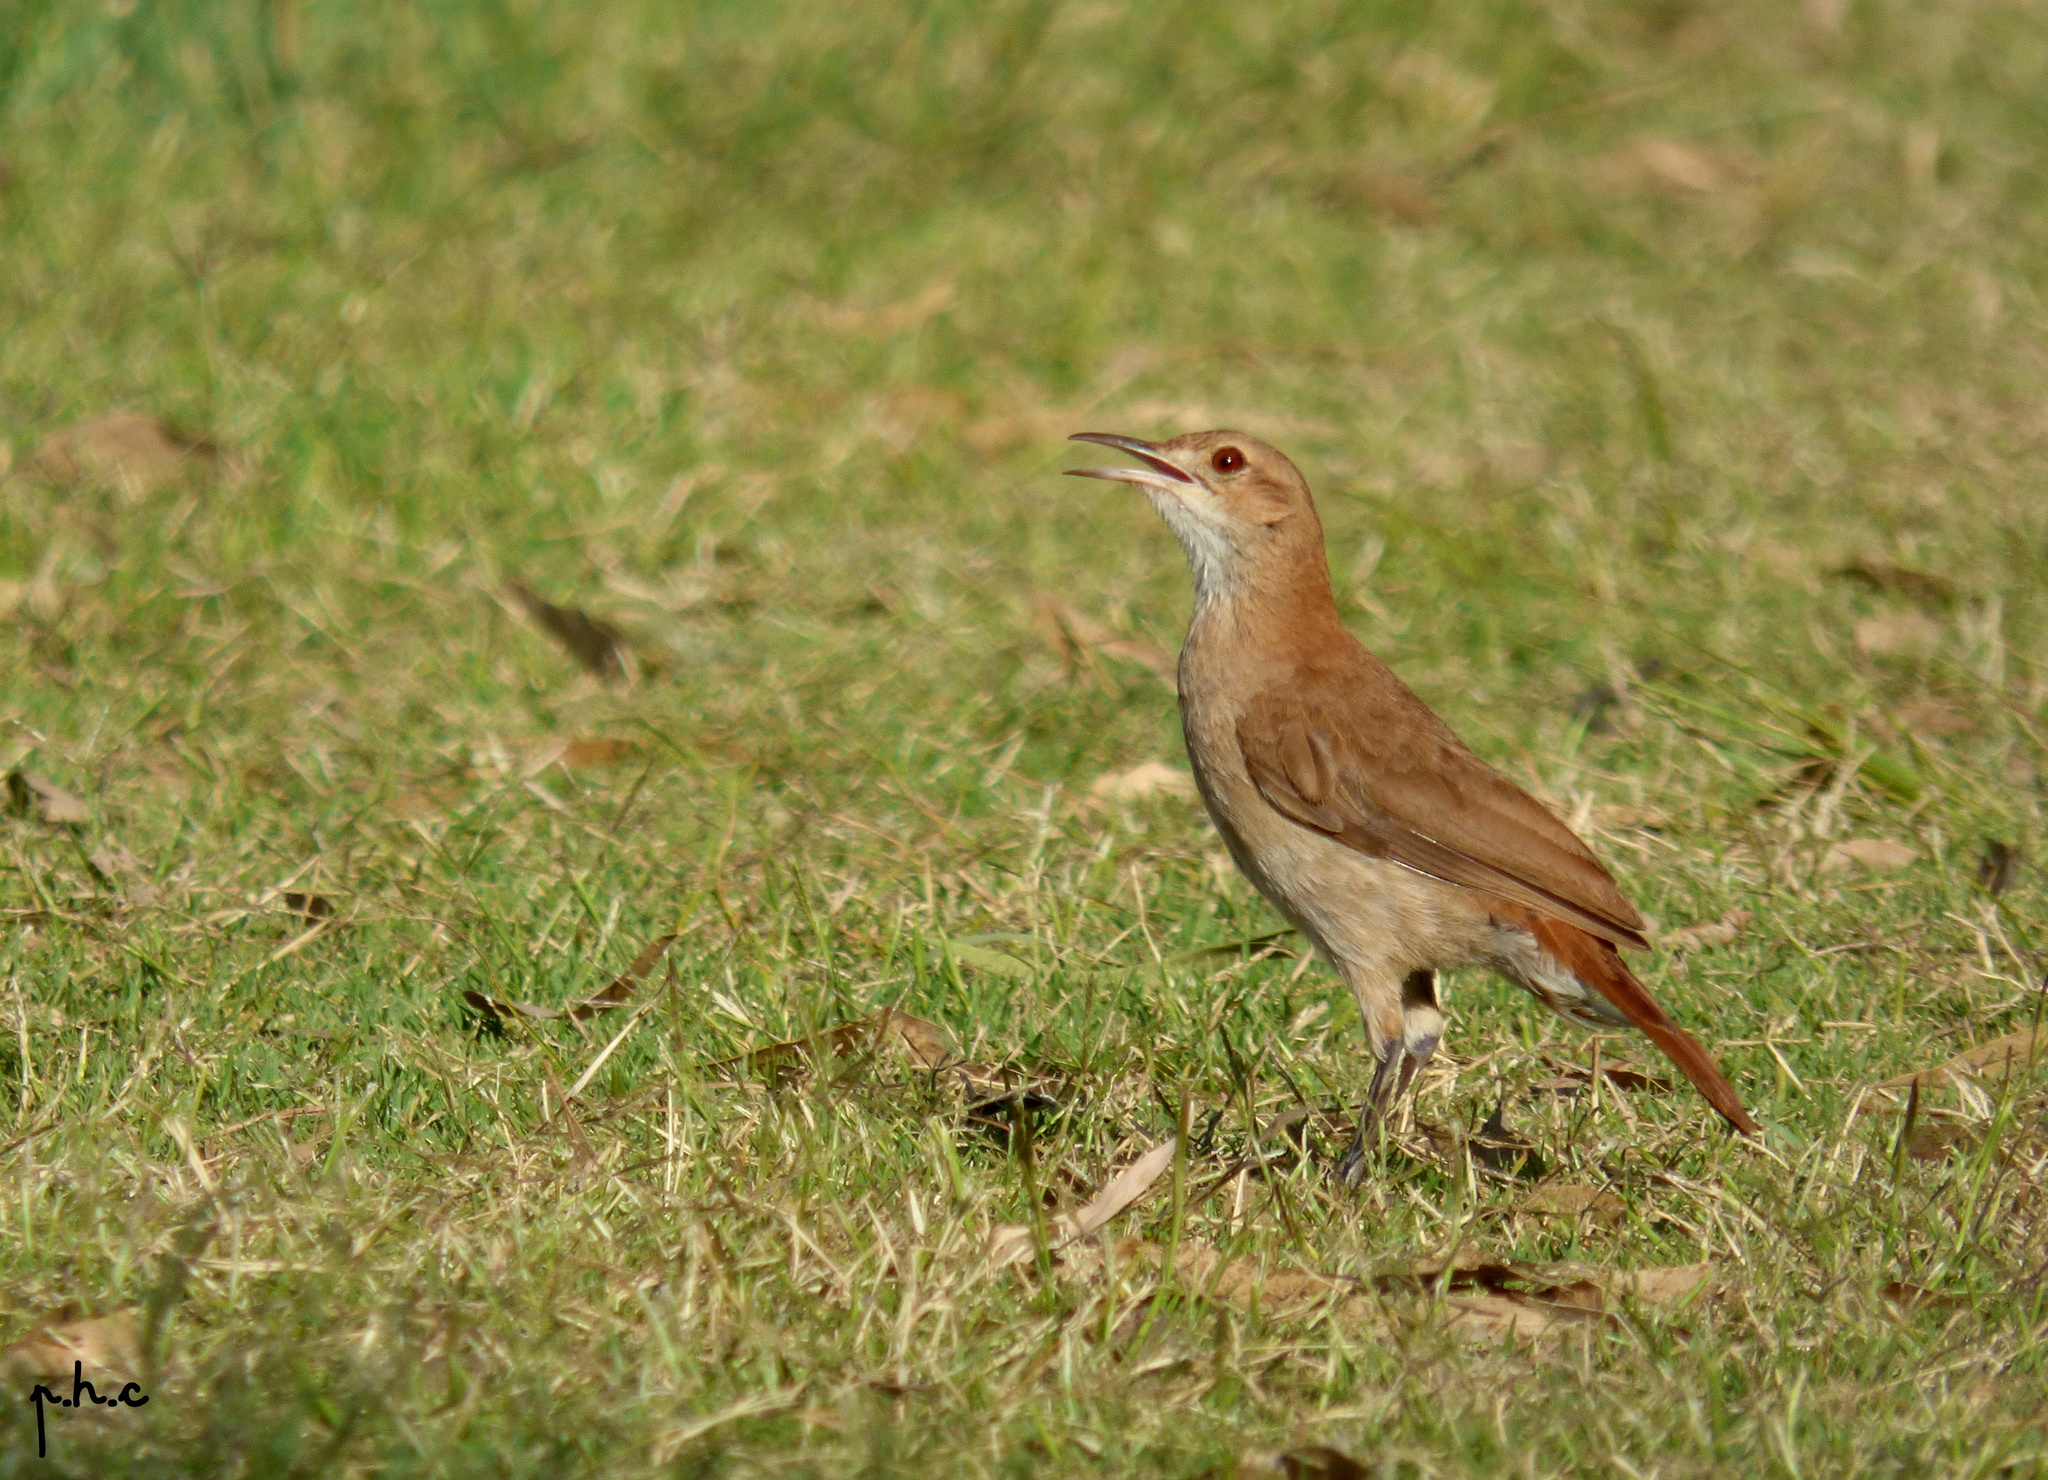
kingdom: Animalia
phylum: Chordata
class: Aves
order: Passeriformes
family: Furnariidae
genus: Furnarius
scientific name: Furnarius rufus
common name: Rufous hornero
